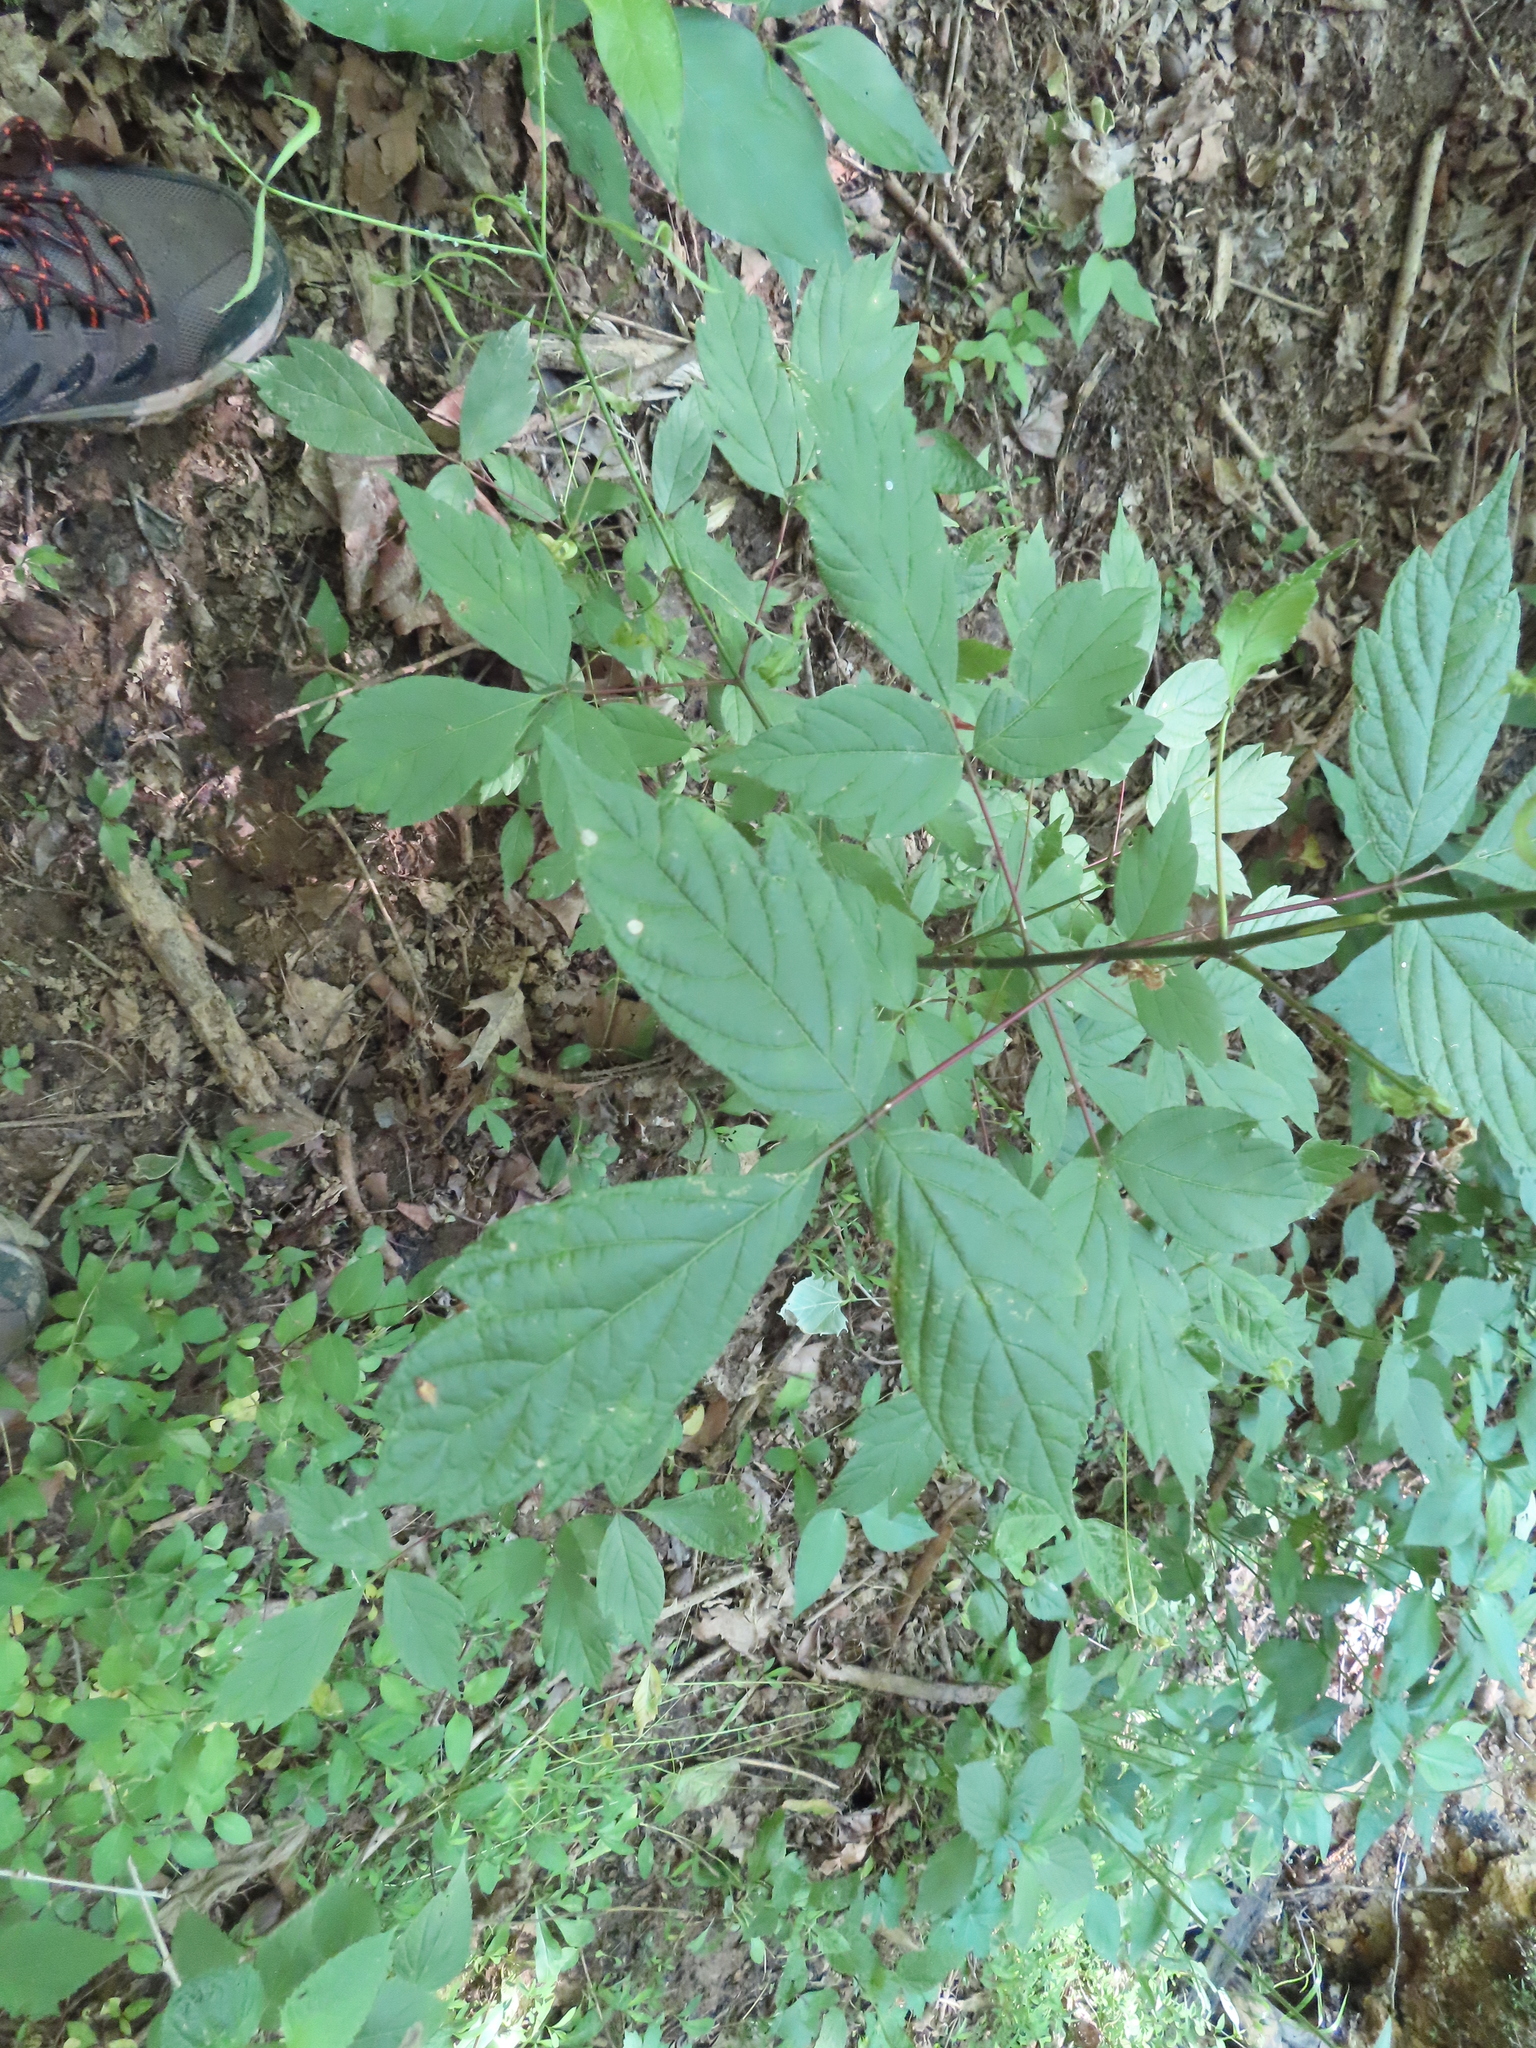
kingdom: Plantae
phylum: Tracheophyta
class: Magnoliopsida
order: Sapindales
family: Sapindaceae
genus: Acer
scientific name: Acer negundo
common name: Ashleaf maple
